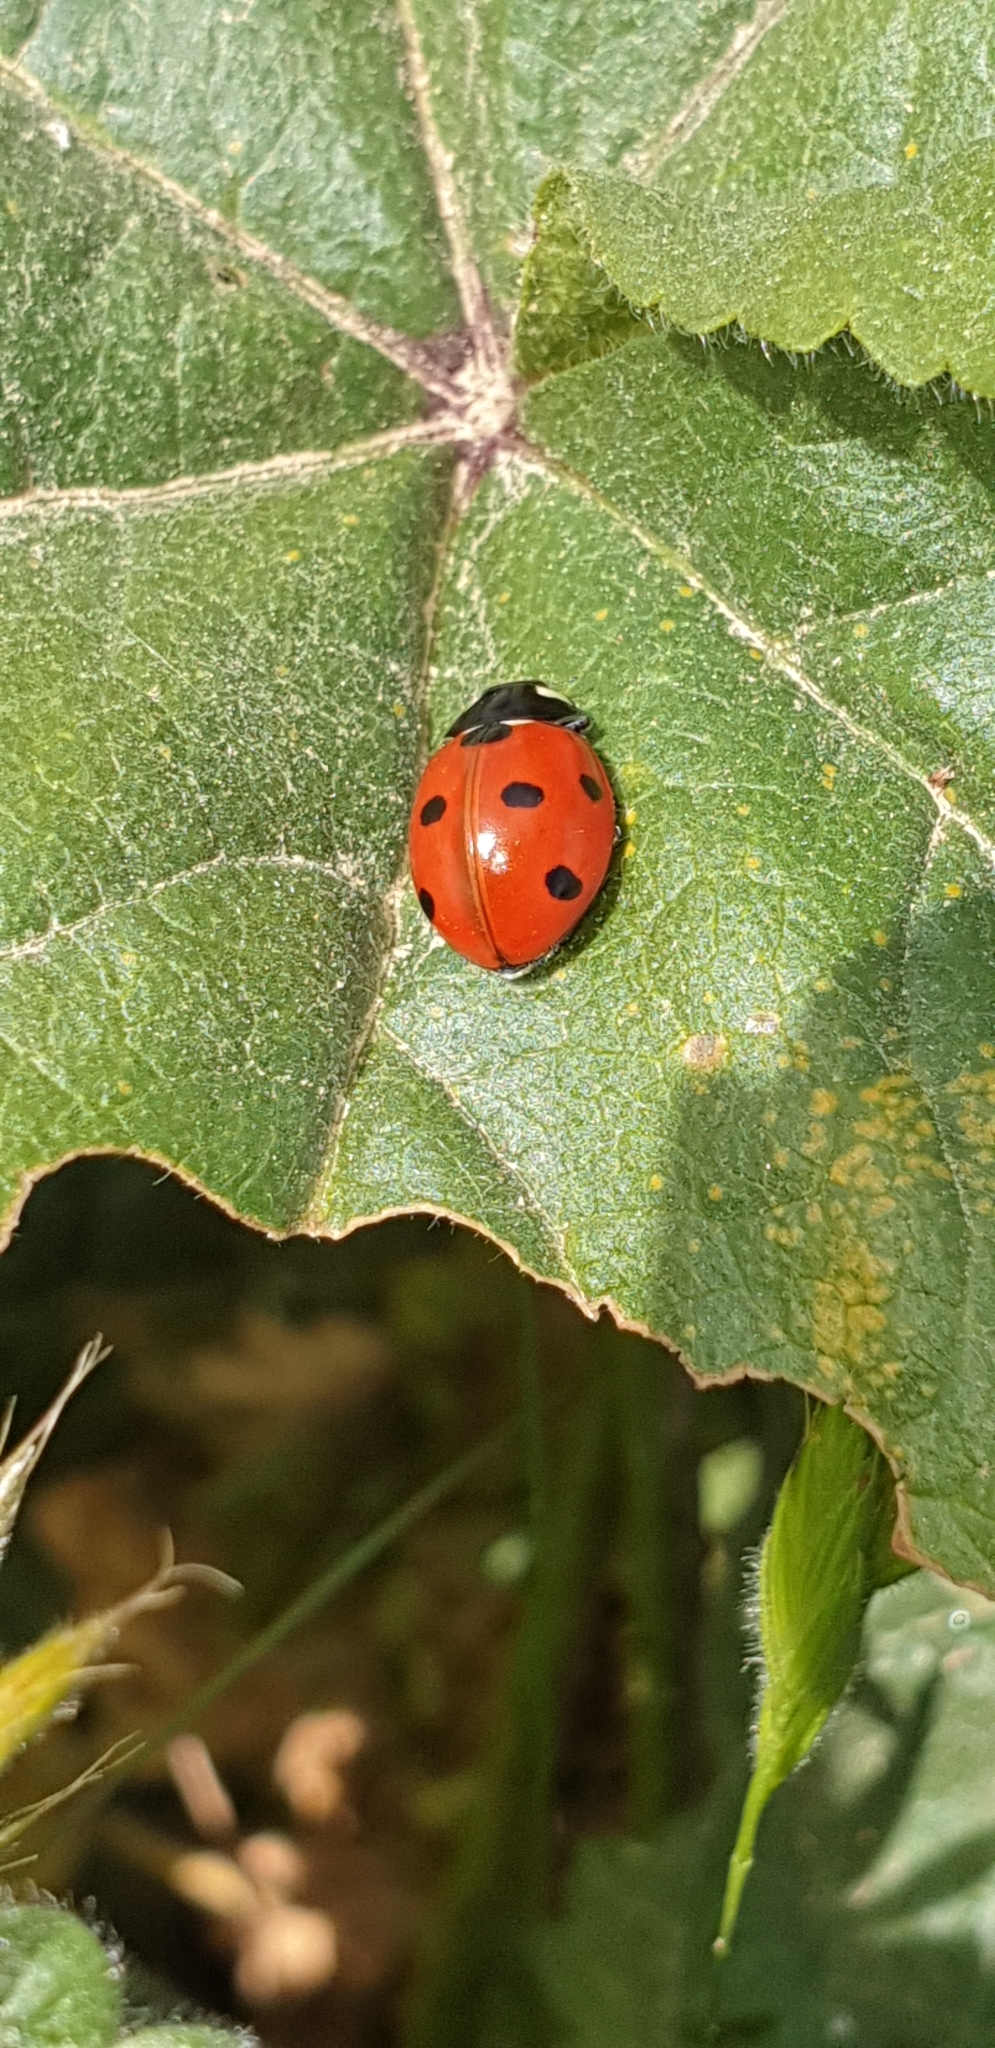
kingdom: Animalia
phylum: Arthropoda
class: Insecta
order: Coleoptera
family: Coccinellidae
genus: Coccinella
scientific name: Coccinella septempunctata
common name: Sevenspotted lady beetle
